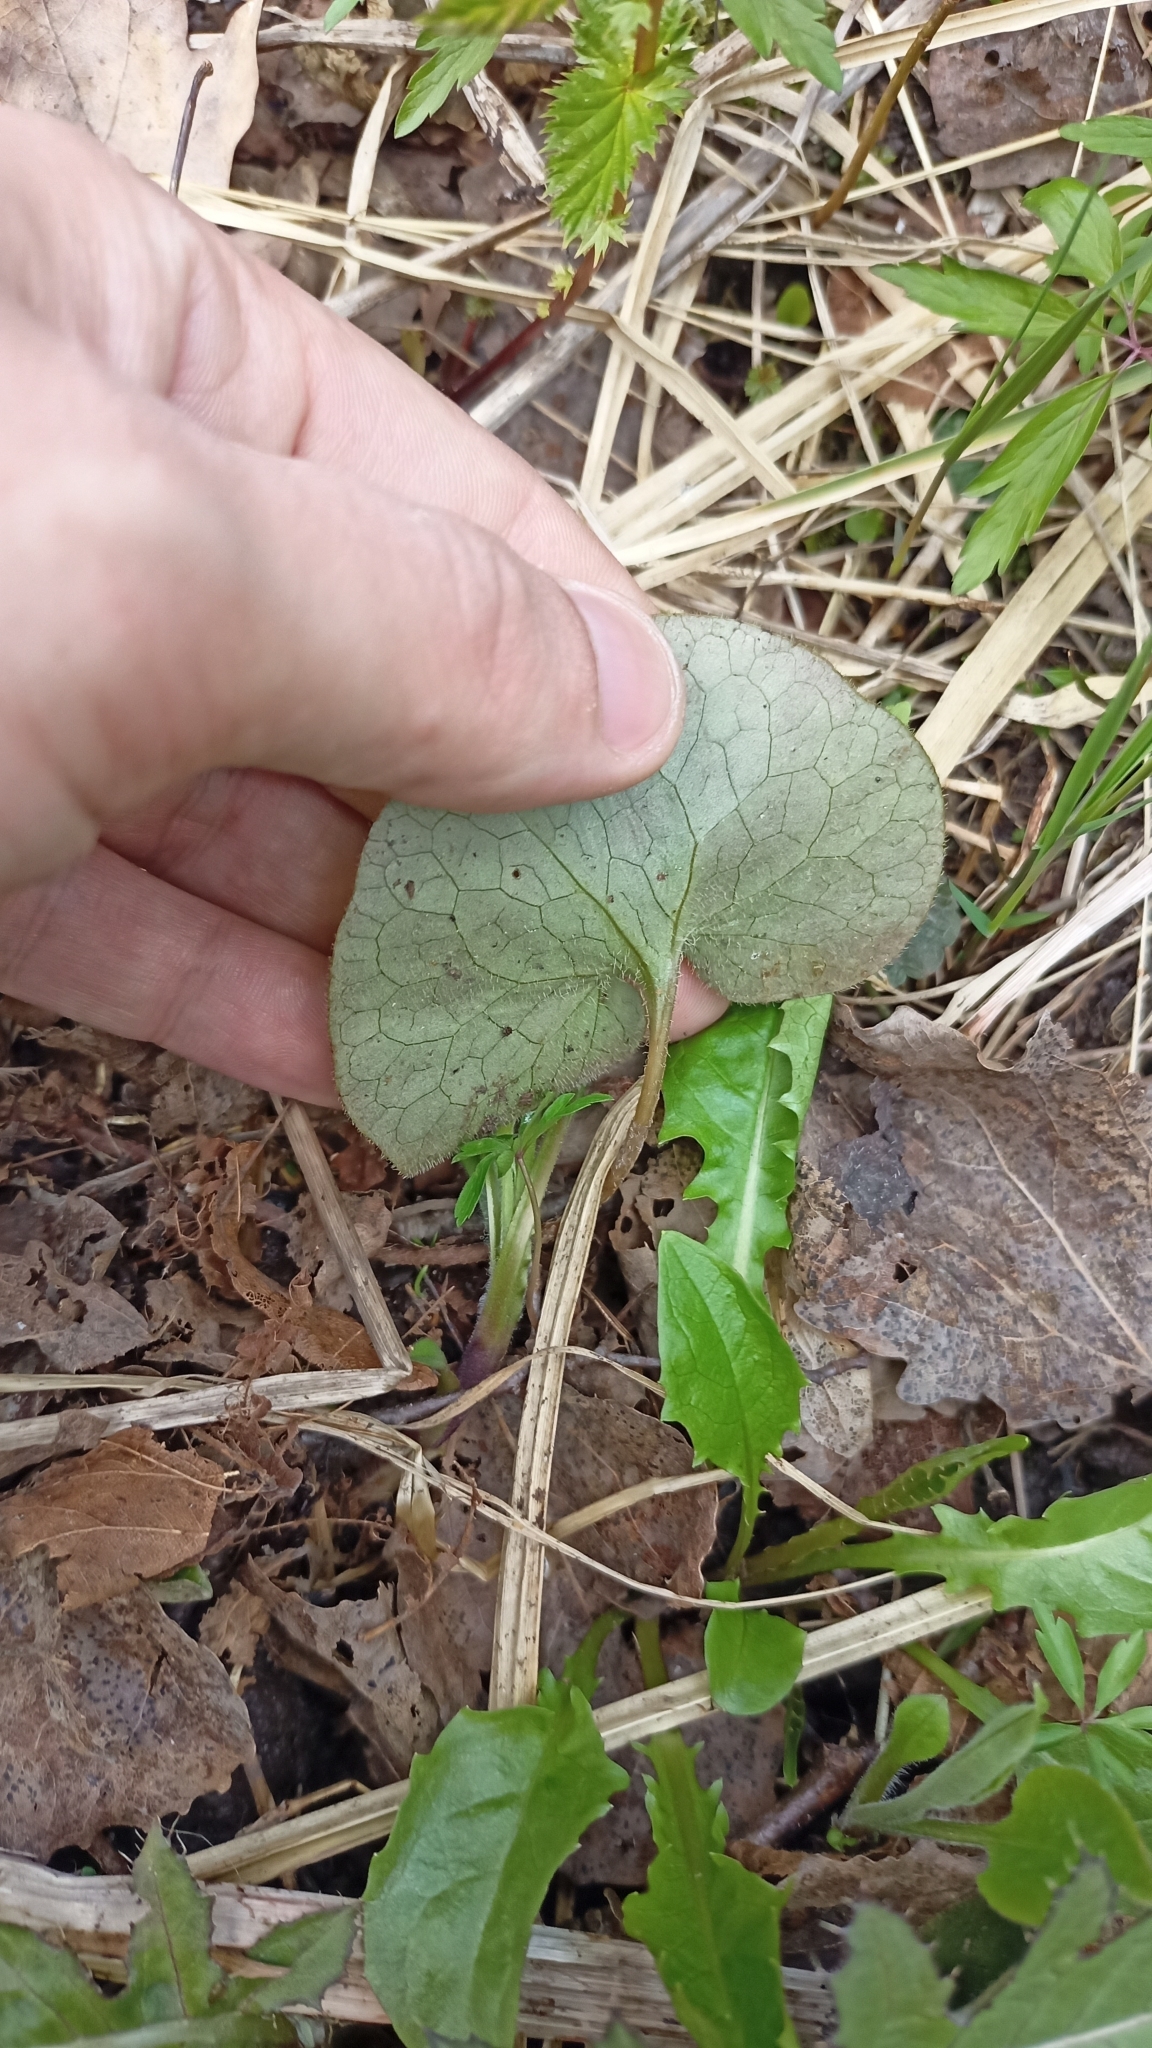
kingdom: Plantae
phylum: Tracheophyta
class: Magnoliopsida
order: Piperales
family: Aristolochiaceae
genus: Asarum
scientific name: Asarum europaeum
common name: Asarabacca
